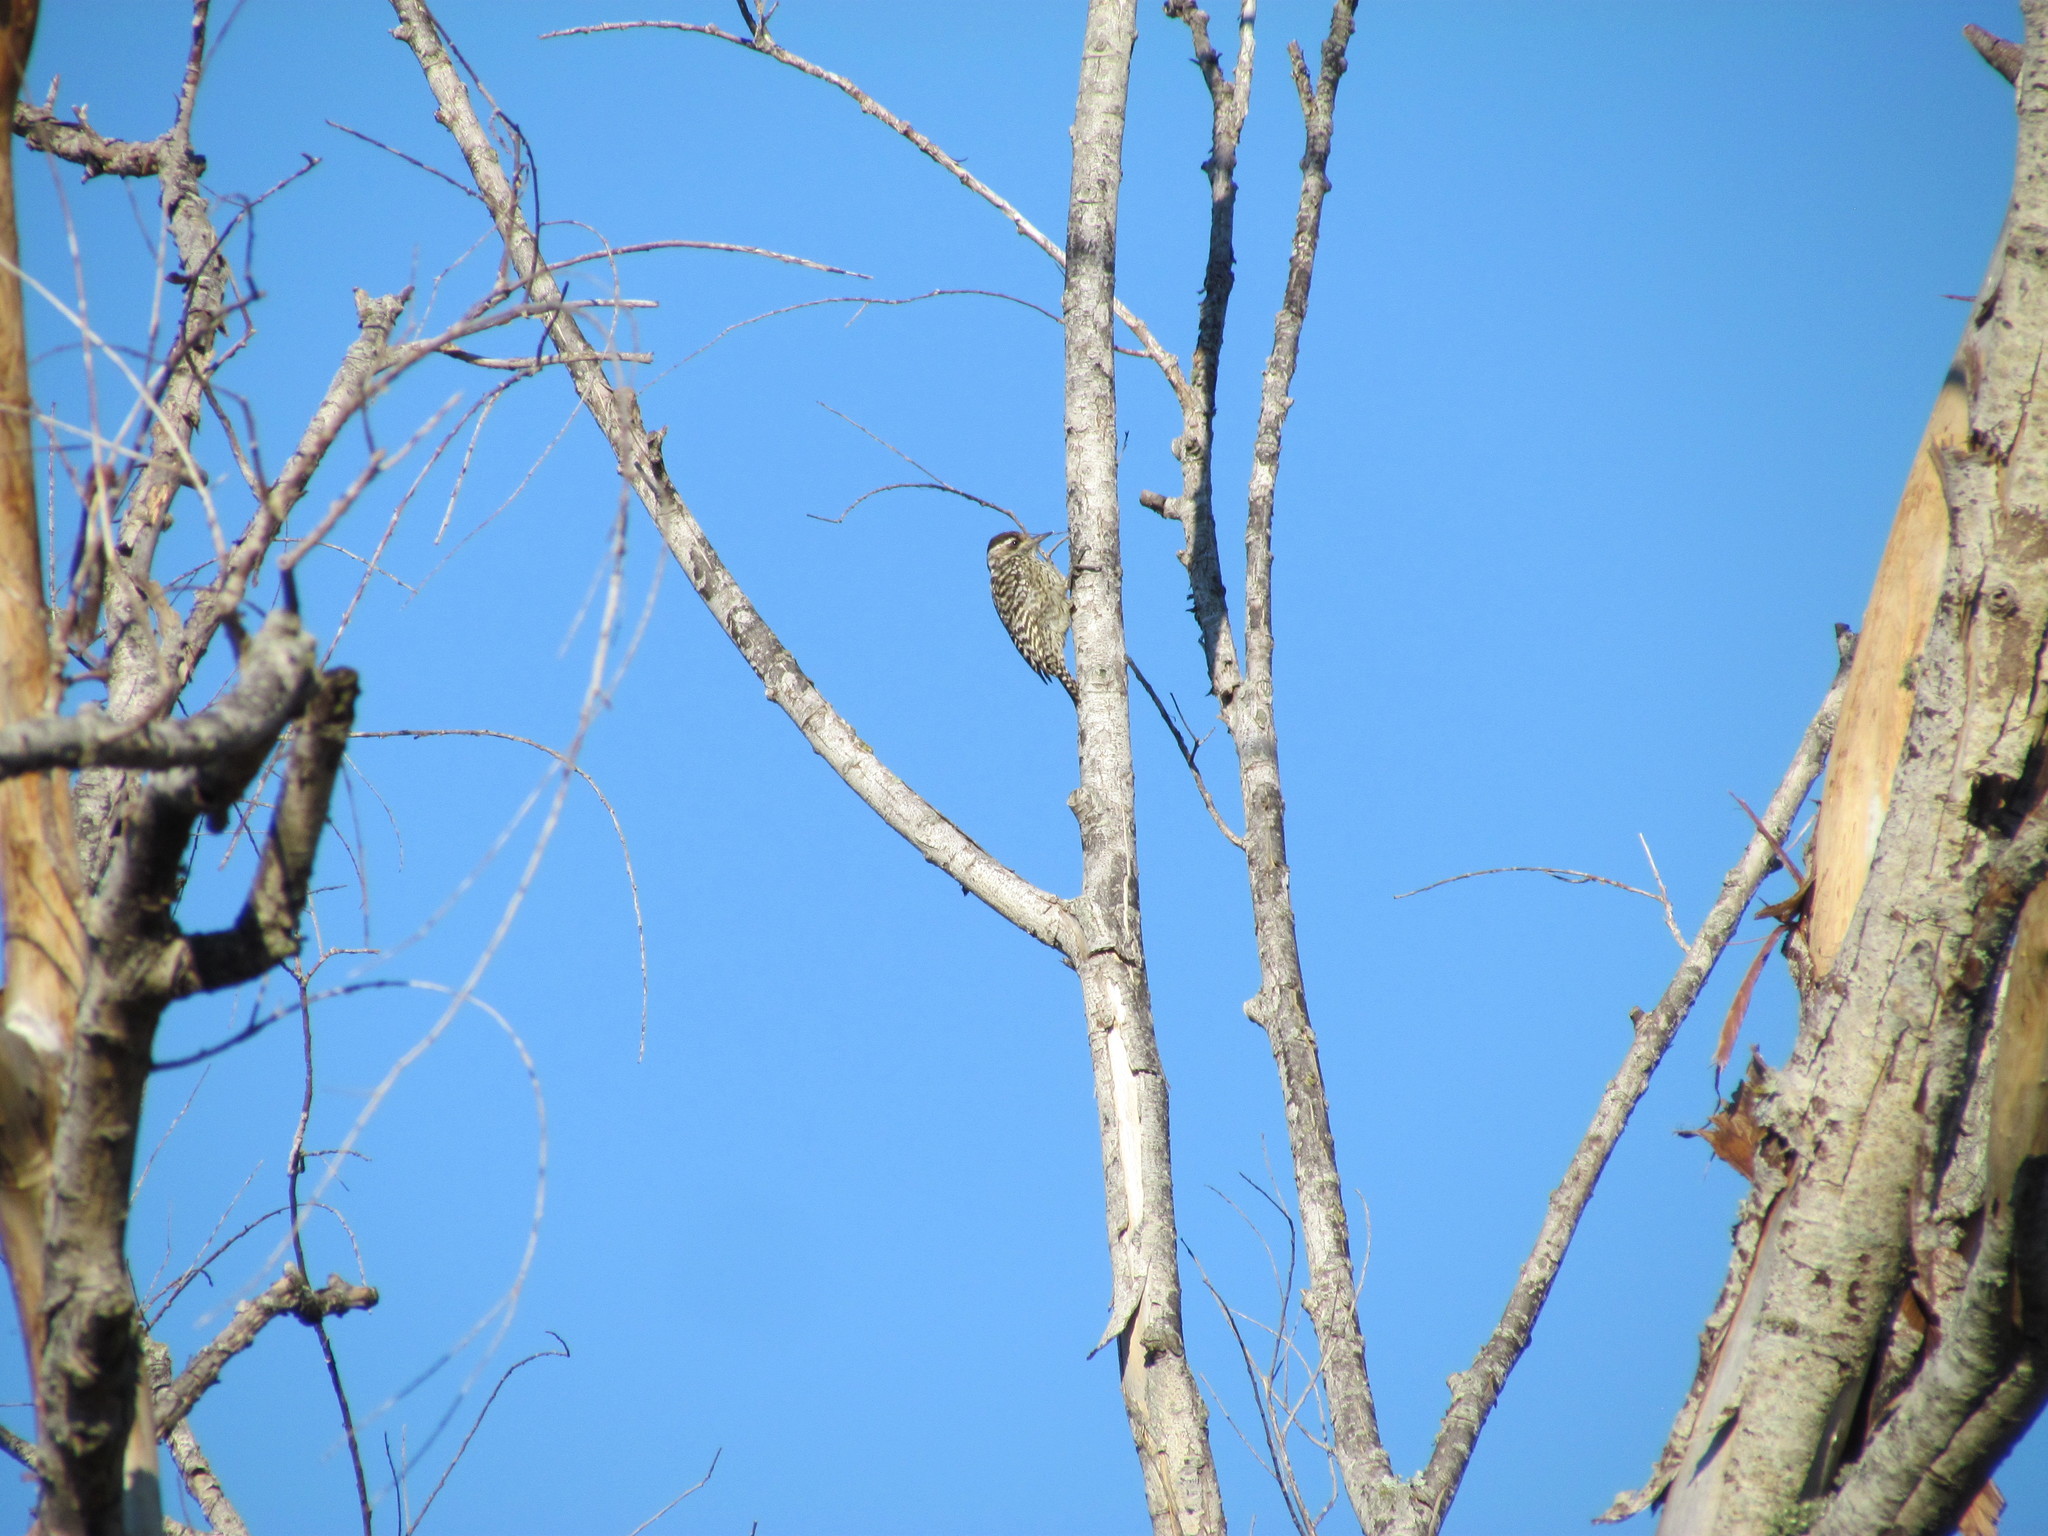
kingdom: Animalia
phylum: Chordata
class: Aves
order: Piciformes
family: Picidae
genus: Veniliornis
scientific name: Veniliornis mixtus
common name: Checkered woodpecker
